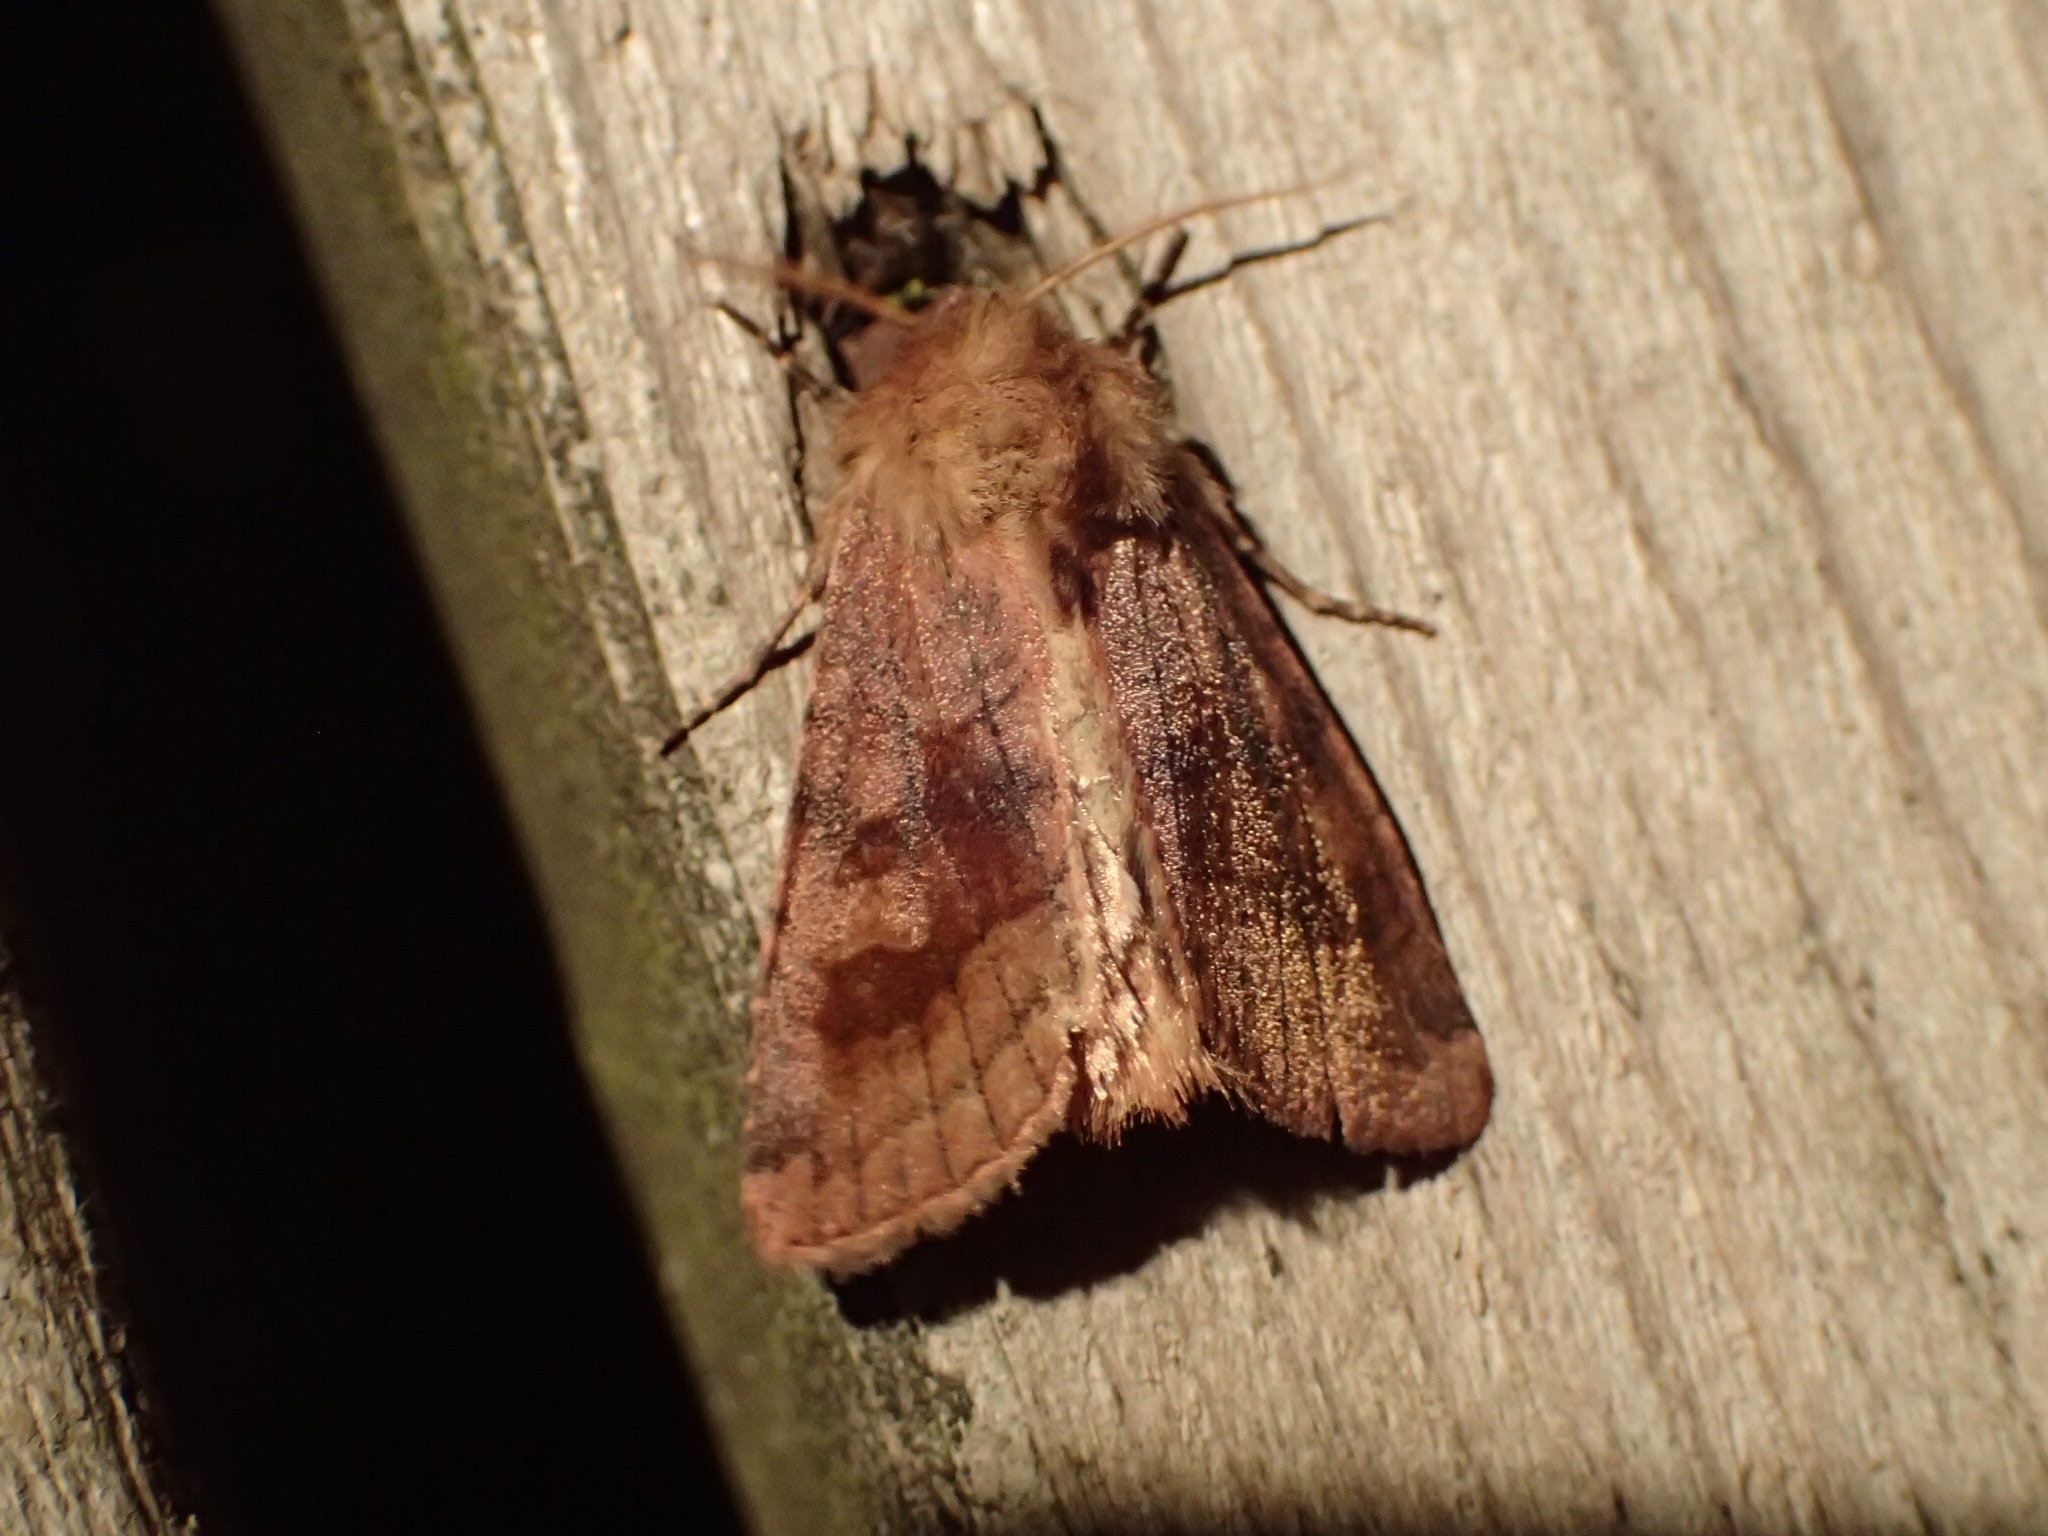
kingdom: Animalia
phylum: Arthropoda
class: Insecta
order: Lepidoptera
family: Noctuidae
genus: Nephelodes
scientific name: Nephelodes minians
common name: Bronzed cutworm
